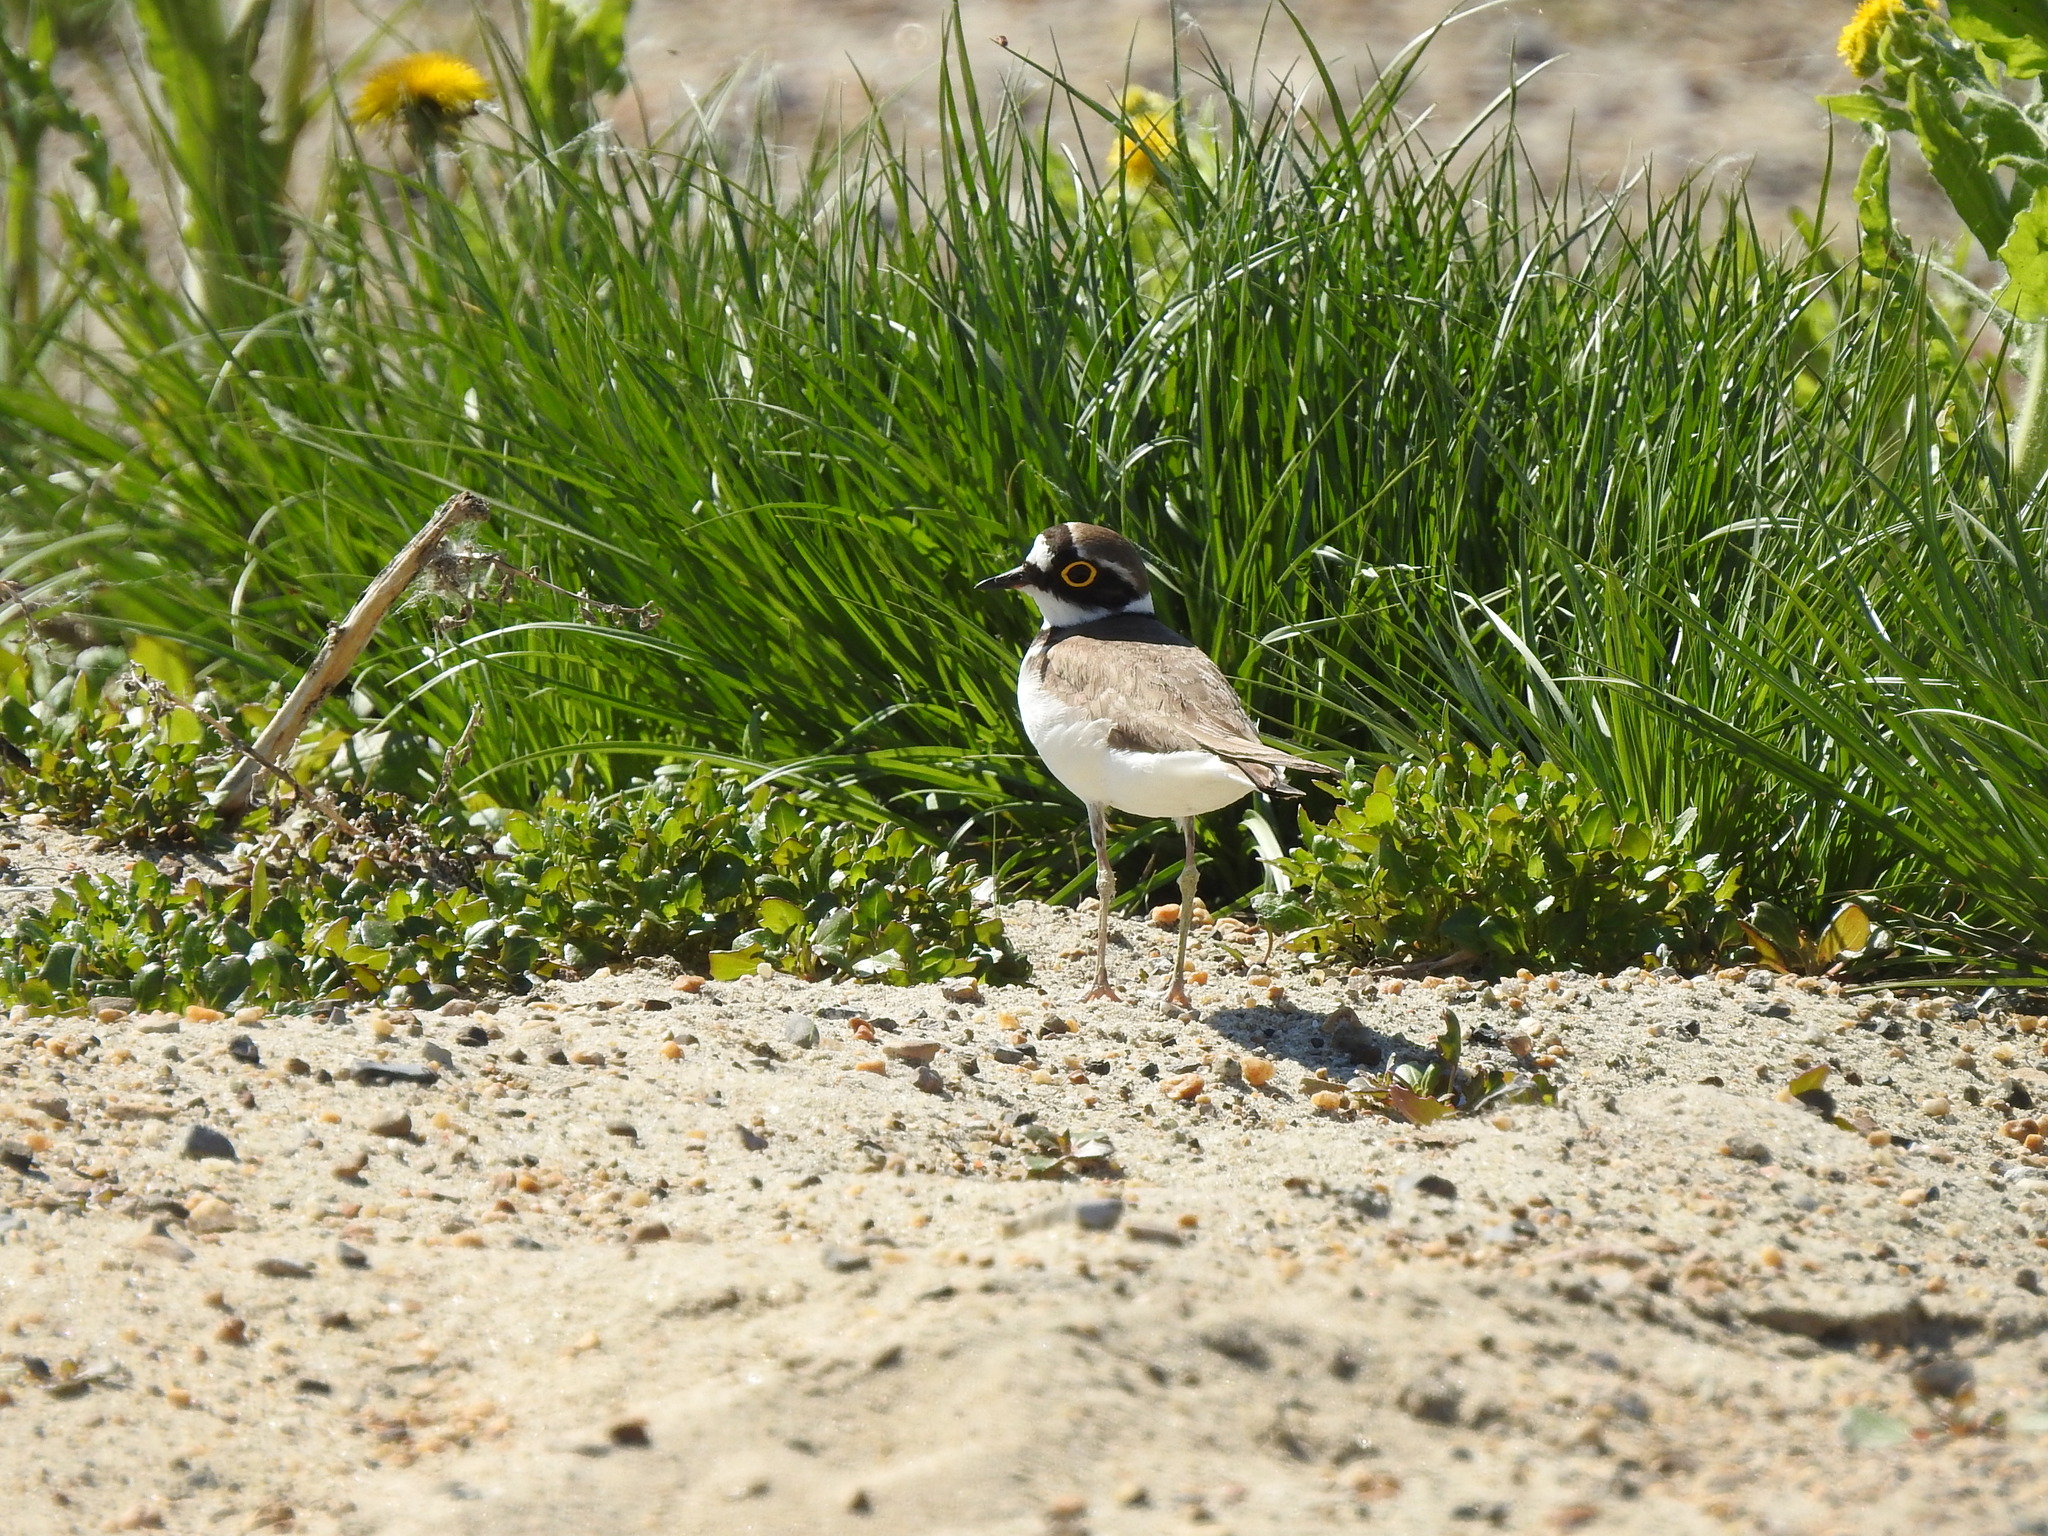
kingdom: Animalia
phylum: Chordata
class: Aves
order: Charadriiformes
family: Charadriidae
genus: Charadrius
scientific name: Charadrius dubius
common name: Little ringed plover
